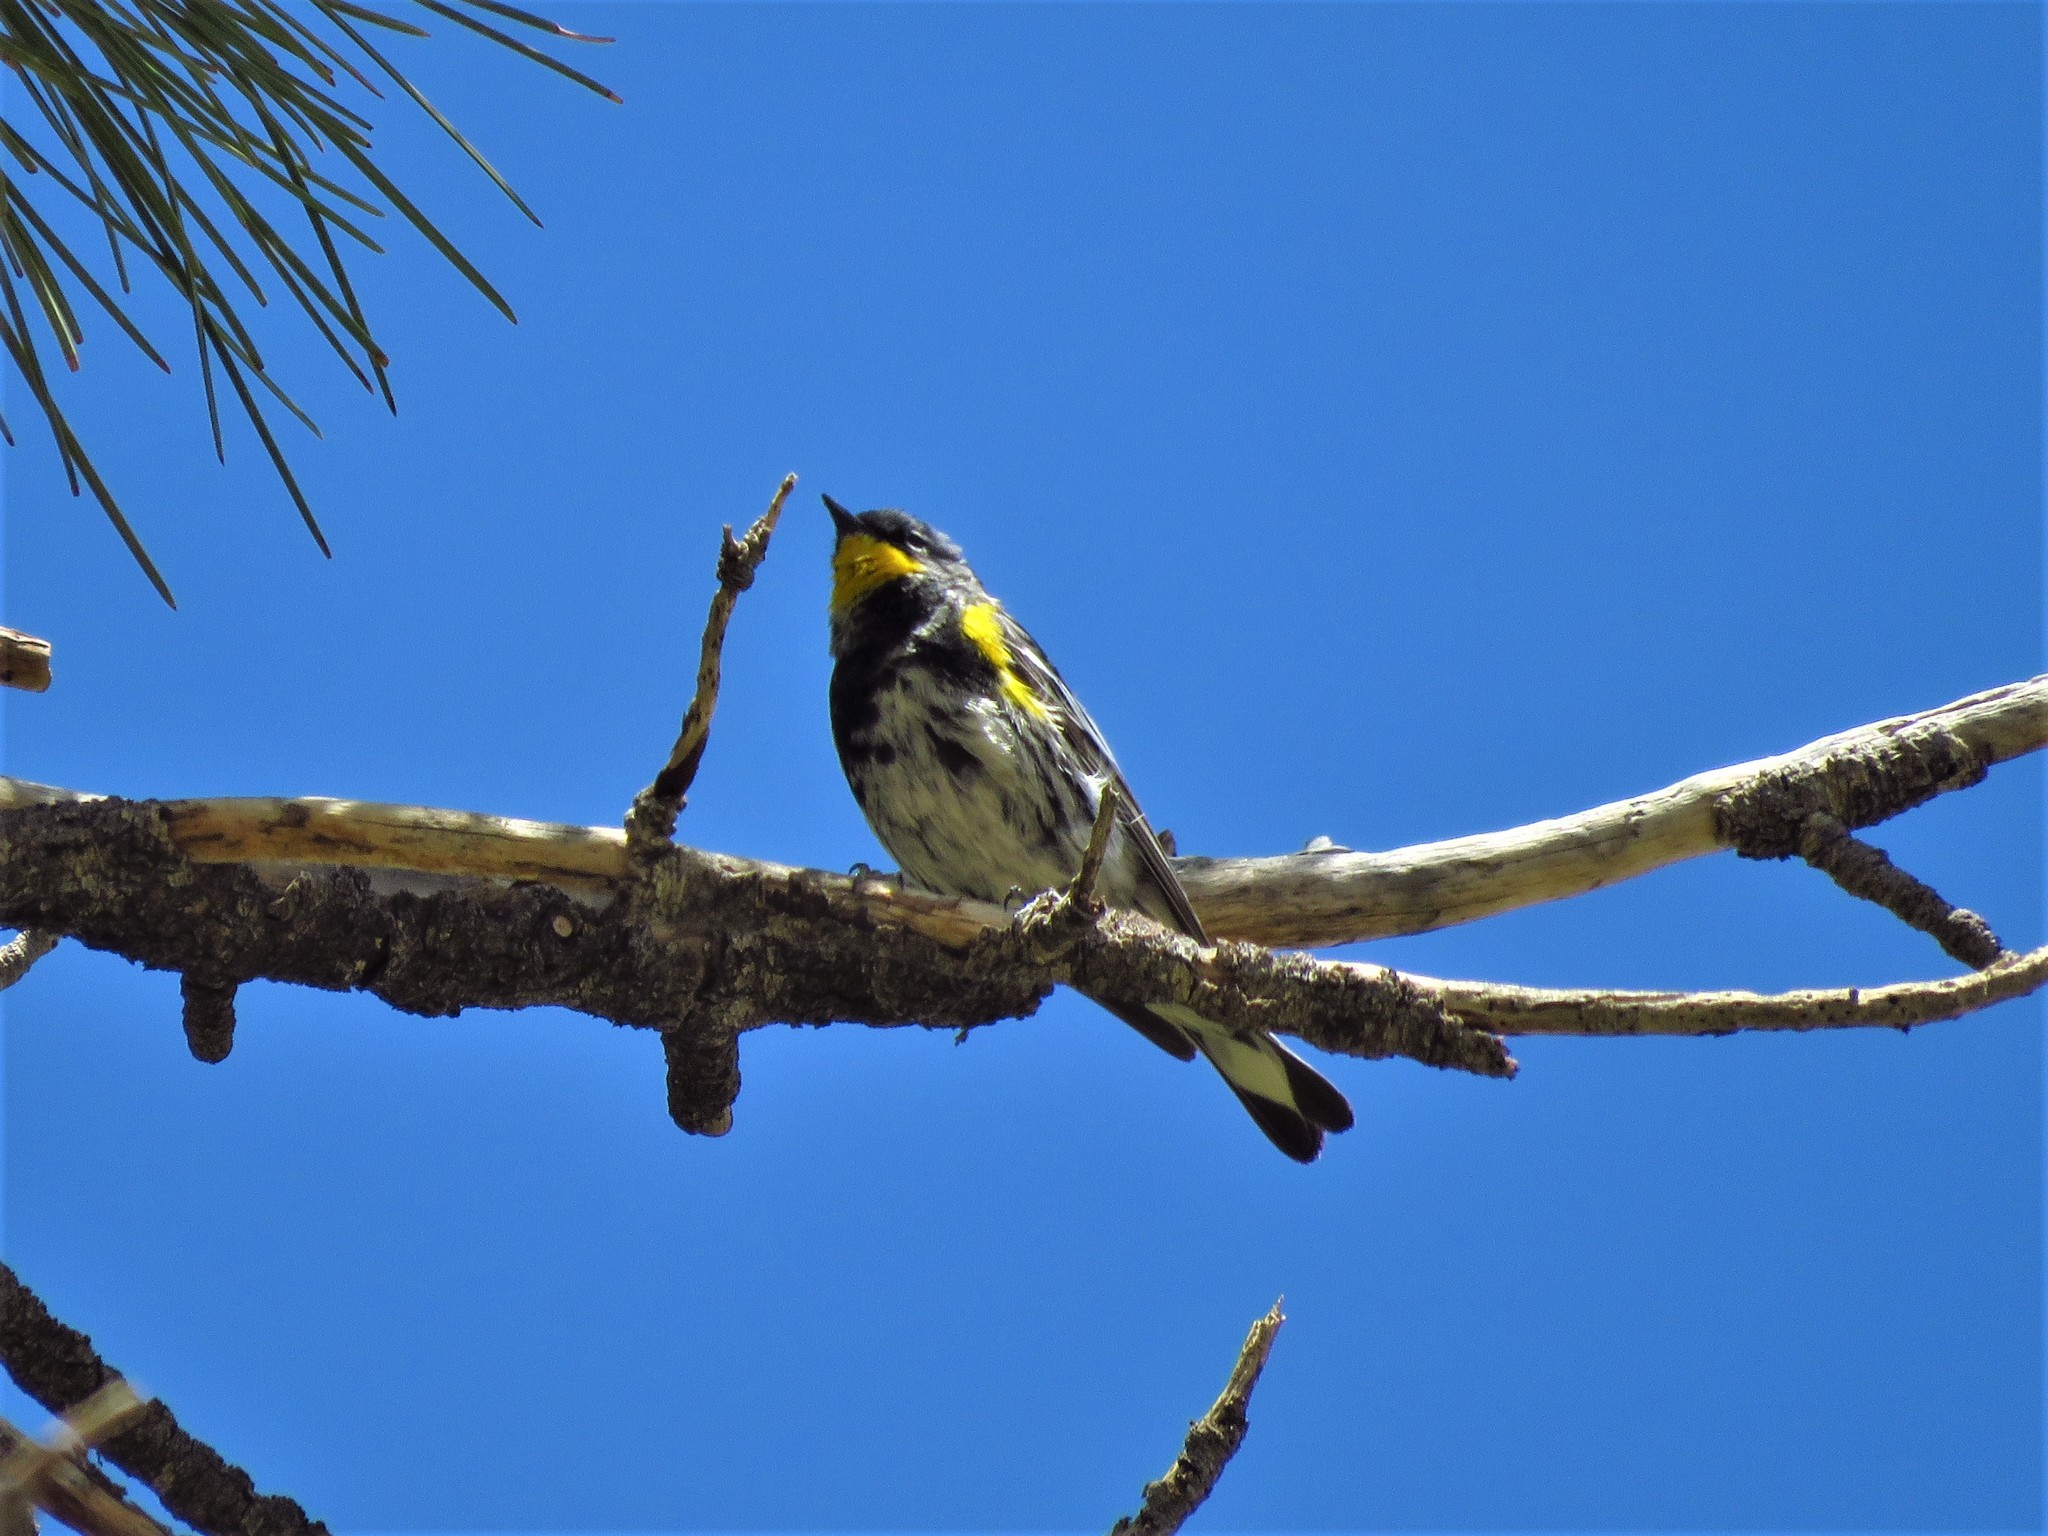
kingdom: Animalia
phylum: Chordata
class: Aves
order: Passeriformes
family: Parulidae
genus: Setophaga
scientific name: Setophaga coronata
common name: Myrtle warbler
